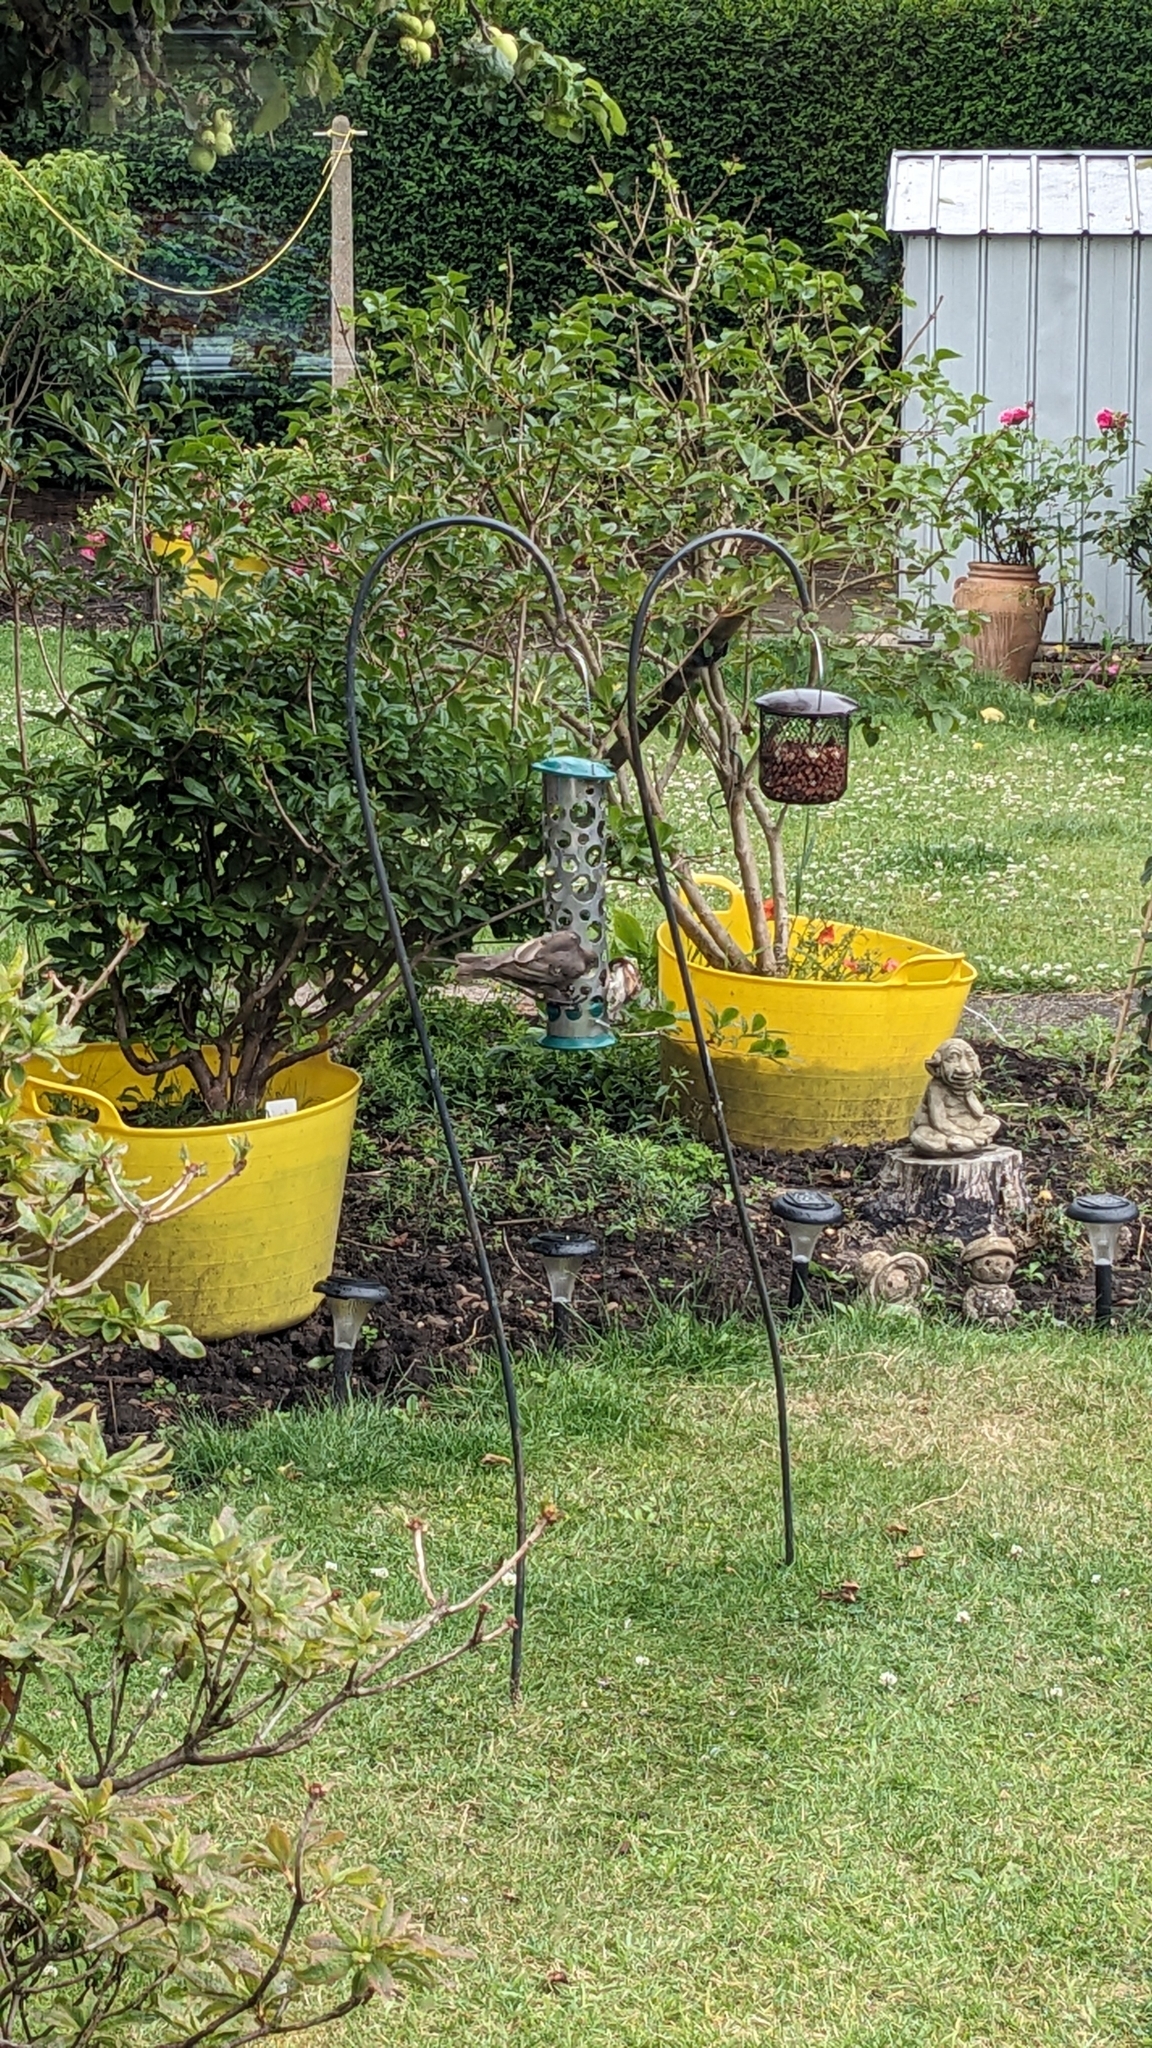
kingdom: Animalia
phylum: Chordata
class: Aves
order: Passeriformes
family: Sturnidae
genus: Sturnus
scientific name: Sturnus vulgaris
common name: Common starling
